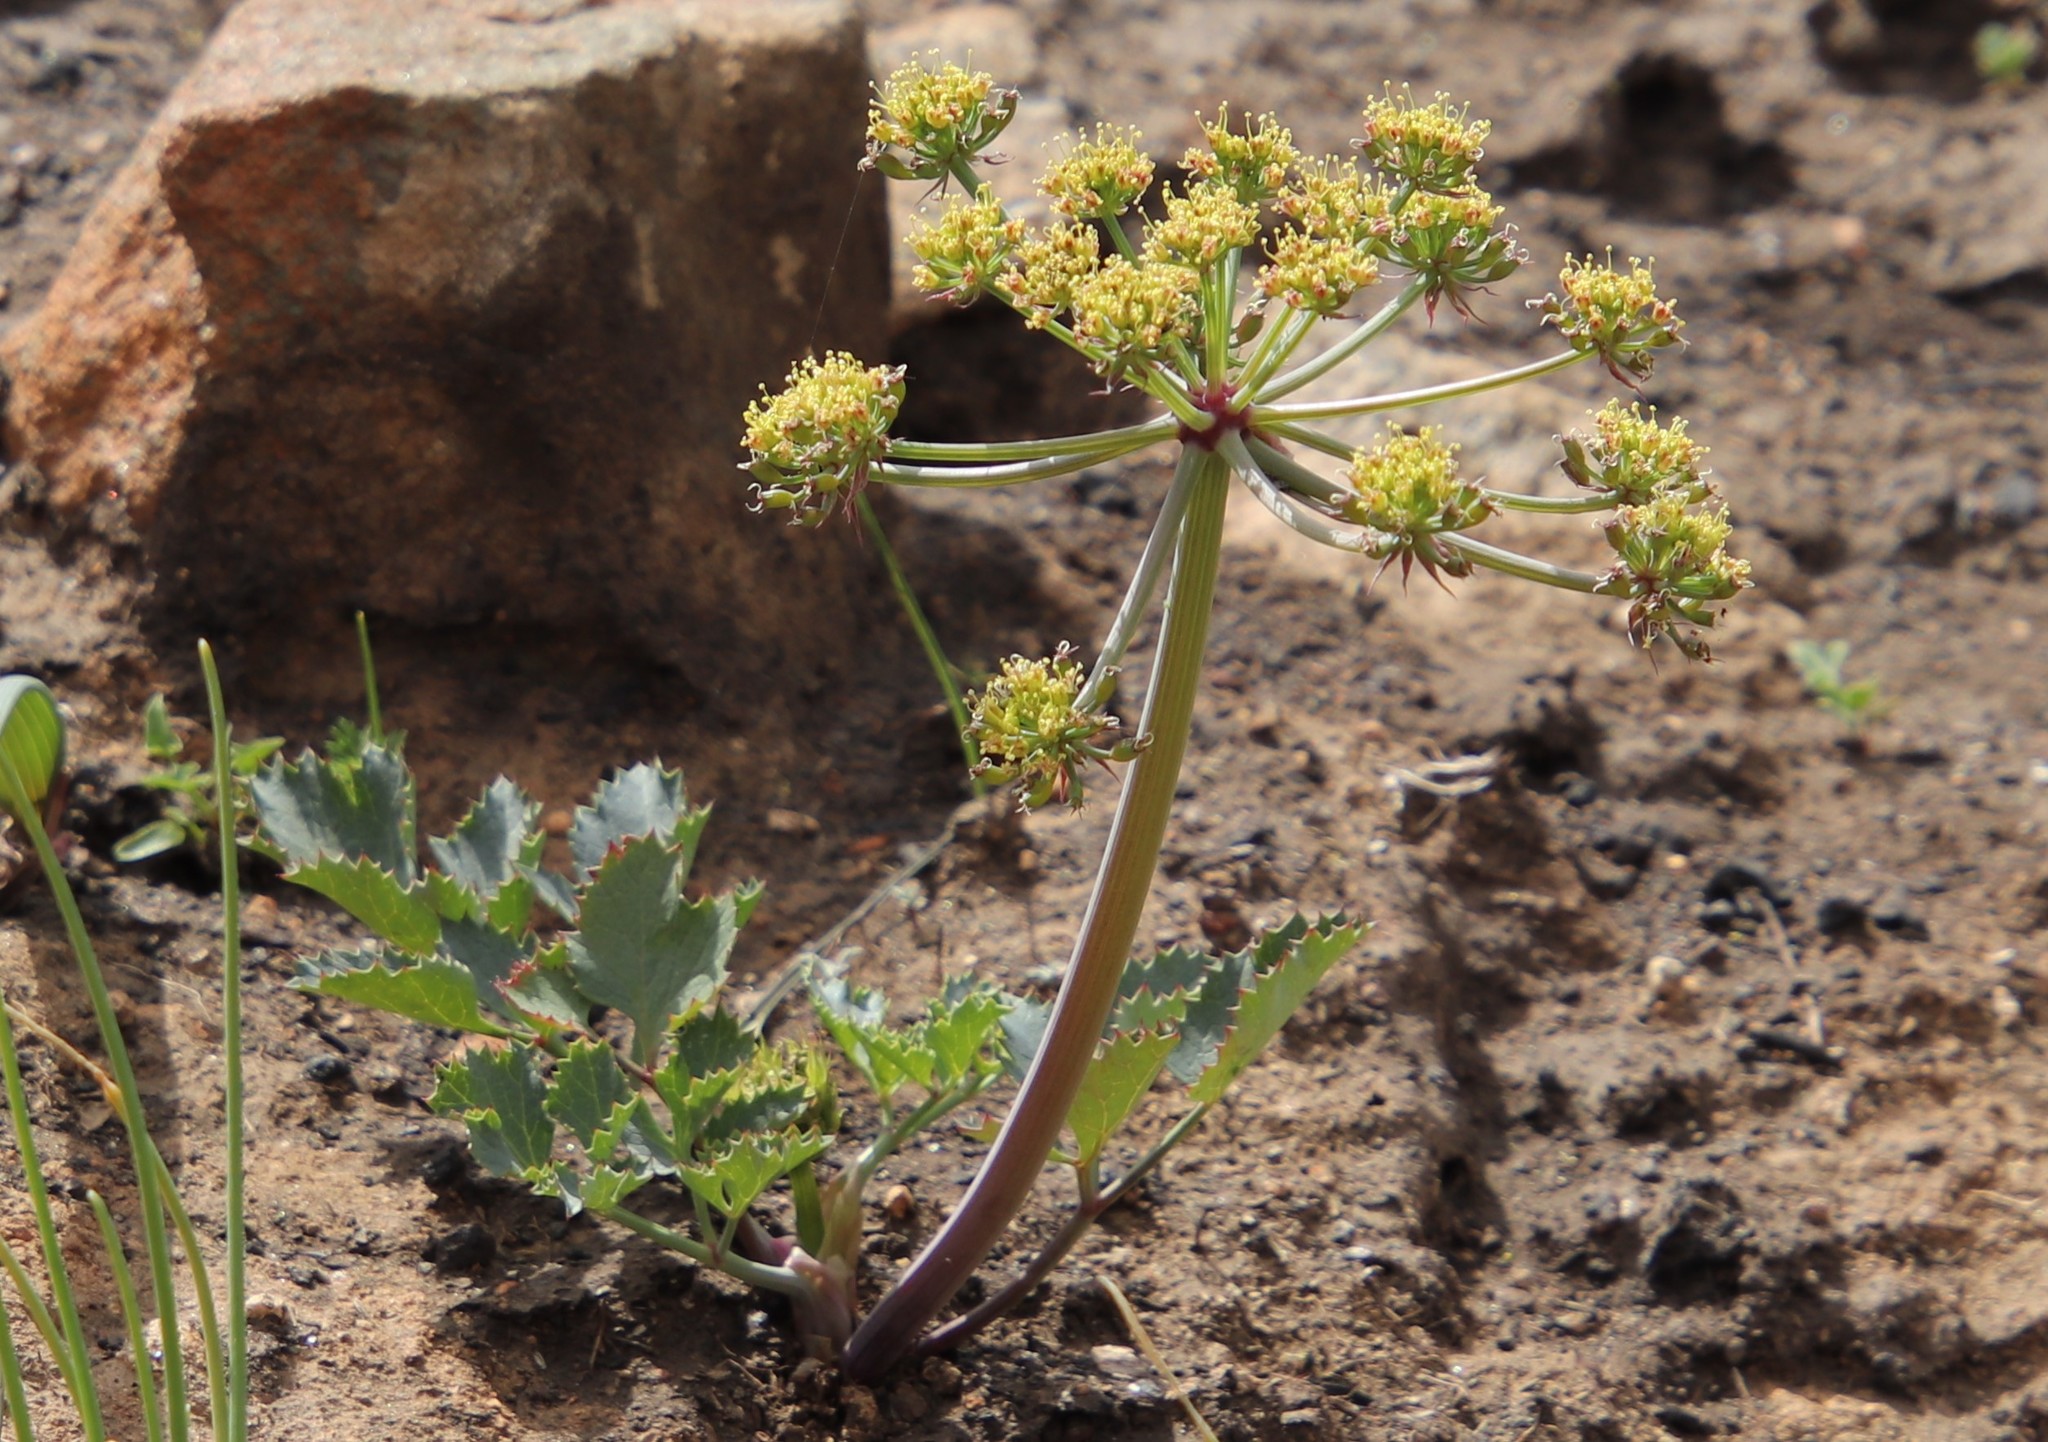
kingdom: Plantae
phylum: Tracheophyta
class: Magnoliopsida
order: Apiales
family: Apiaceae
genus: Lomatium
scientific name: Lomatium lucidum
